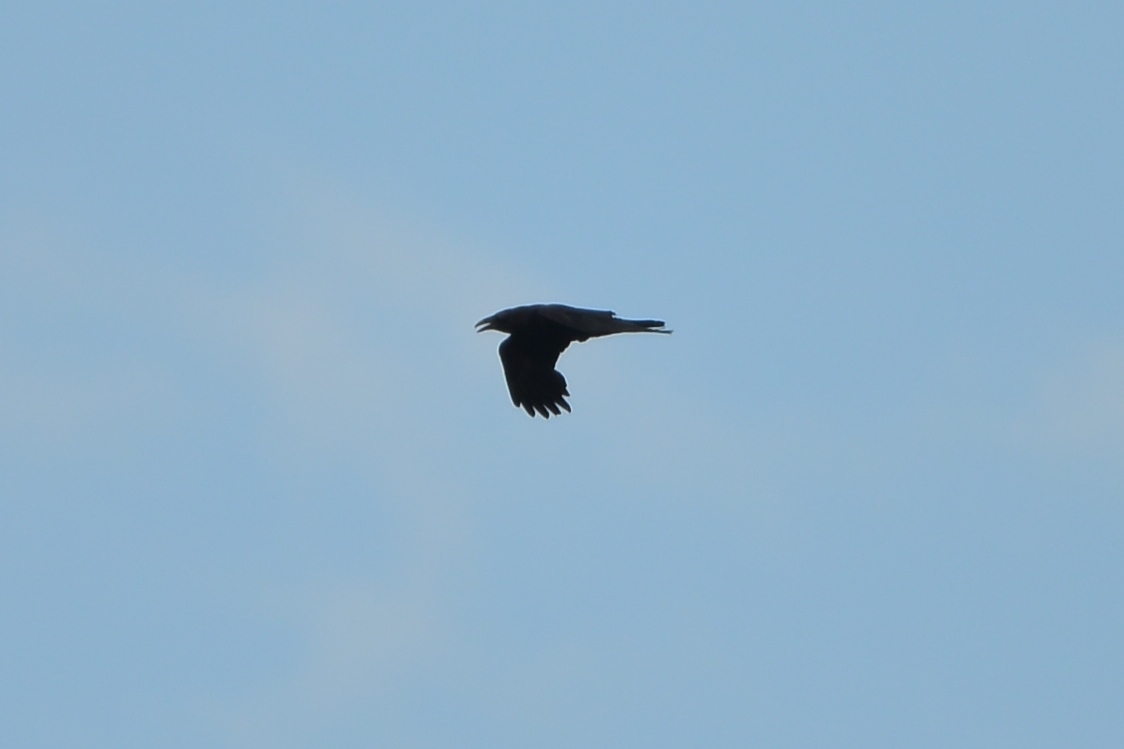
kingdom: Animalia
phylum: Chordata
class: Aves
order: Passeriformes
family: Corvidae
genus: Corvus
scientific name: Corvus corax
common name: Common raven
